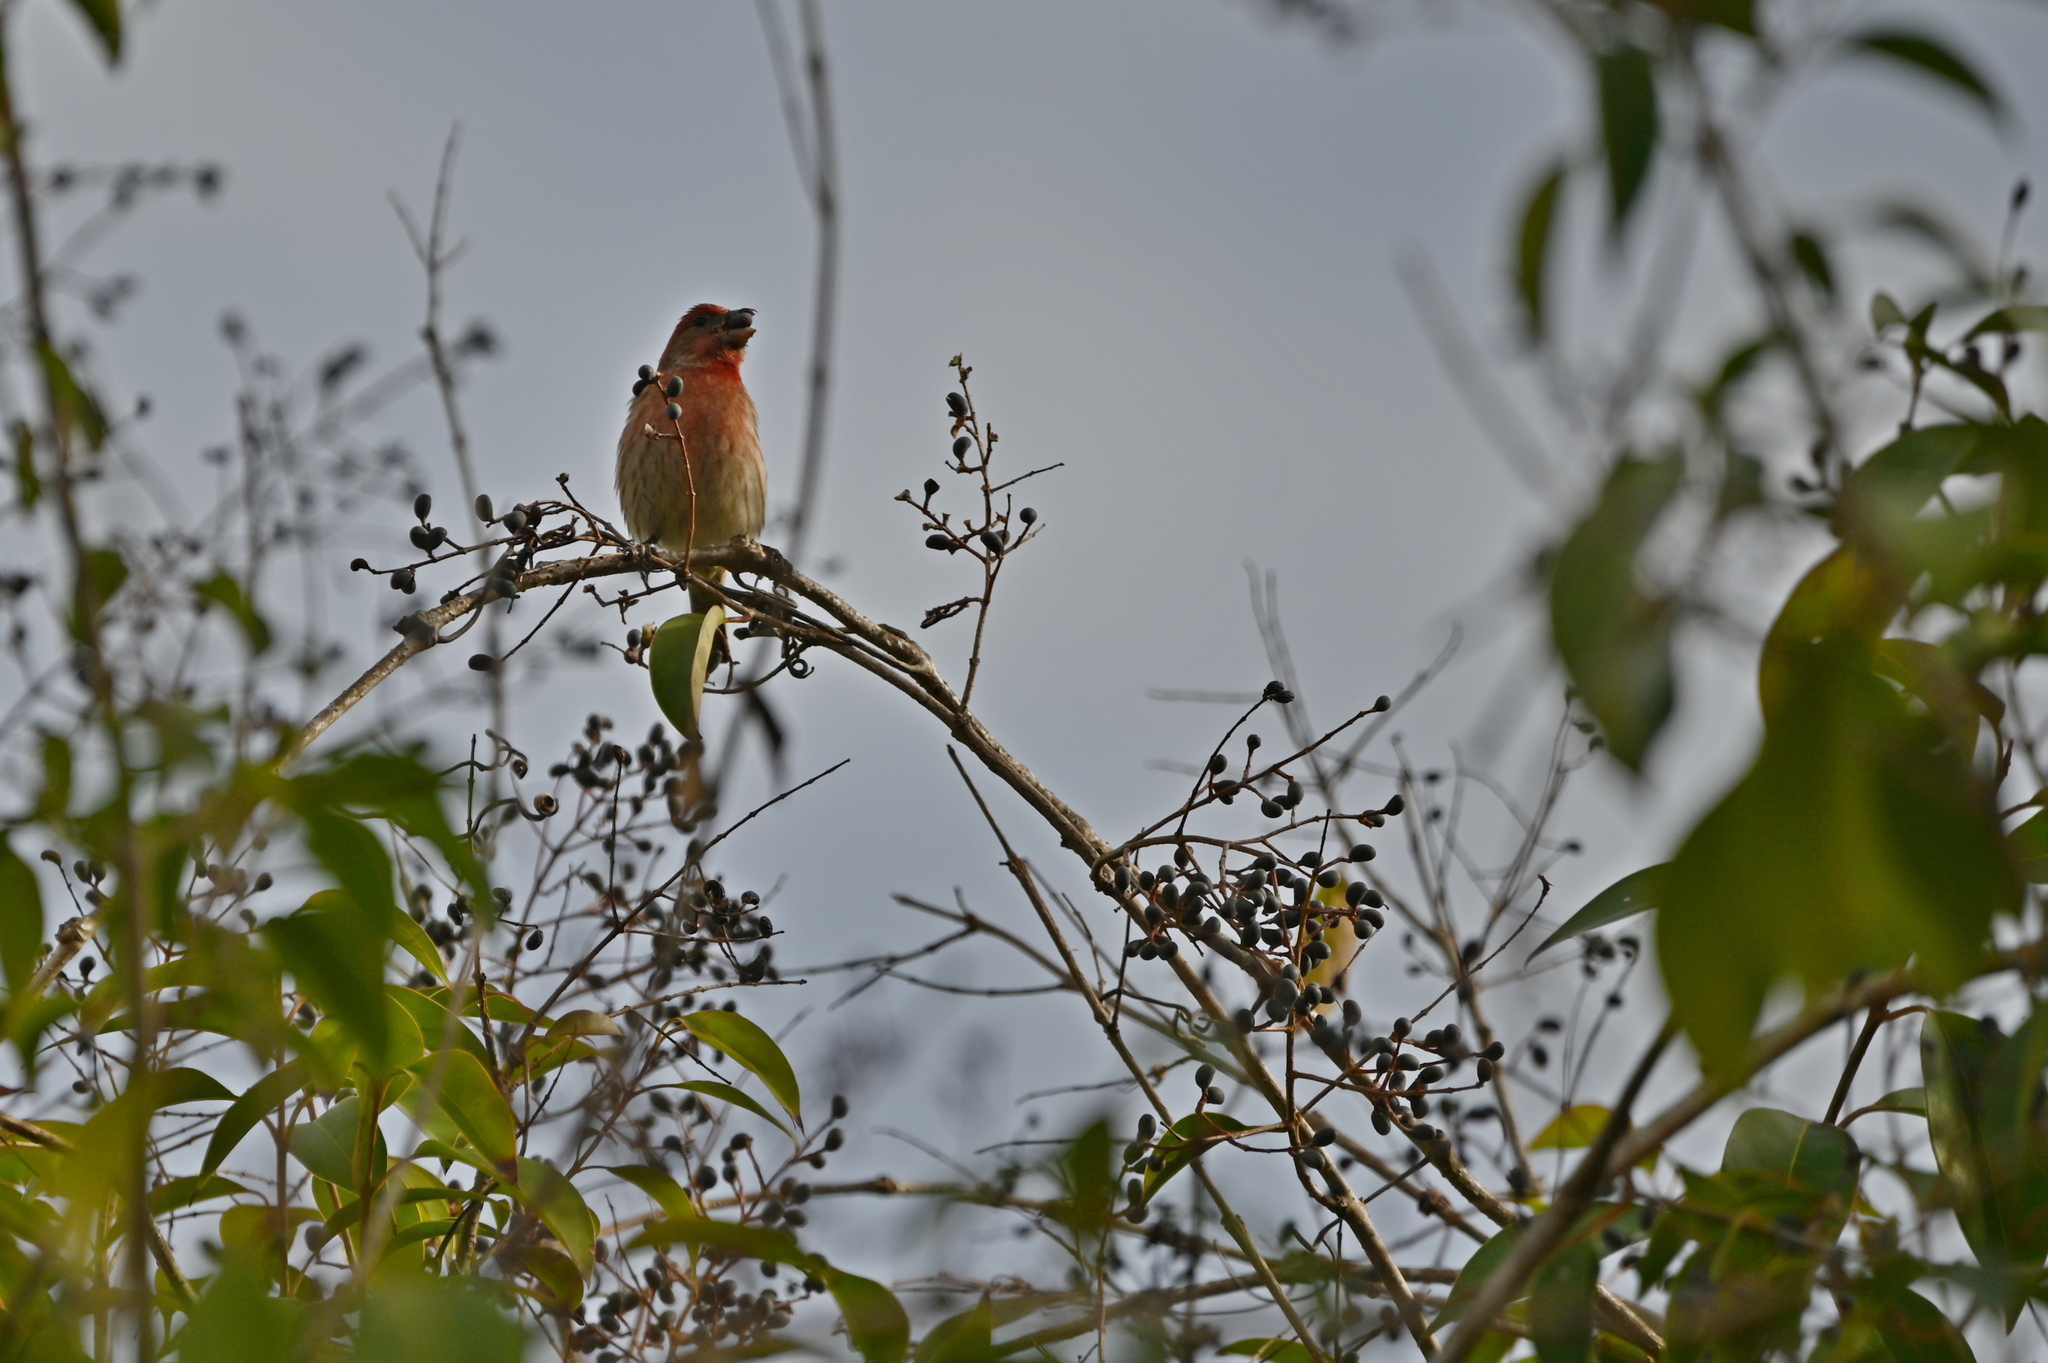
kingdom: Animalia
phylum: Chordata
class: Aves
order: Passeriformes
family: Fringillidae
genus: Haemorhous
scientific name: Haemorhous mexicanus
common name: House finch
